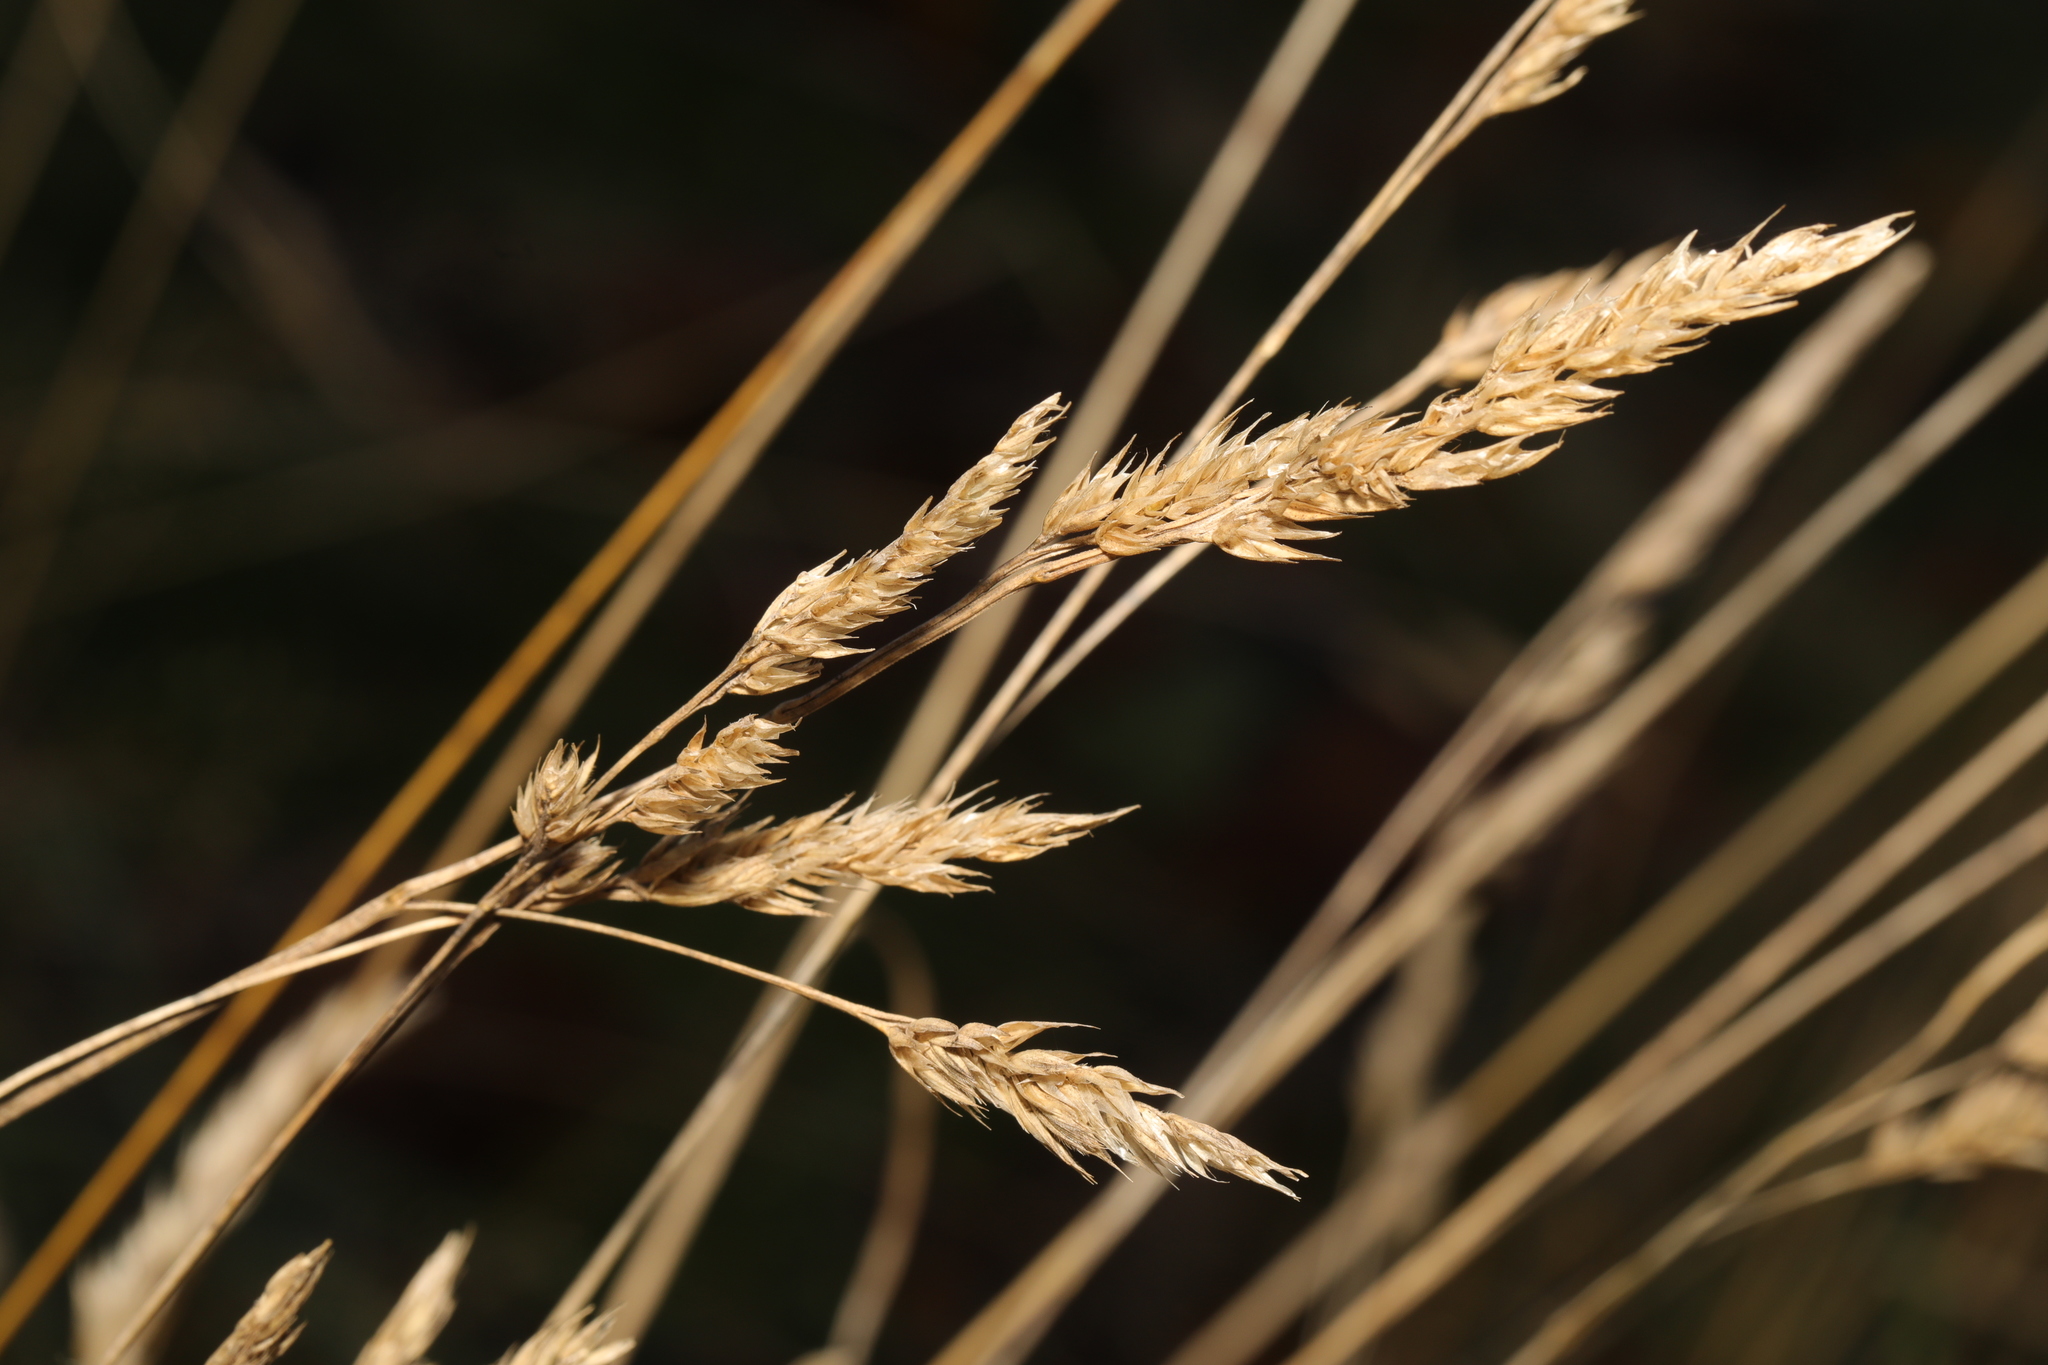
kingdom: Plantae
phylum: Tracheophyta
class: Liliopsida
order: Poales
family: Poaceae
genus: Dactylis
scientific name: Dactylis glomerata
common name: Orchardgrass
